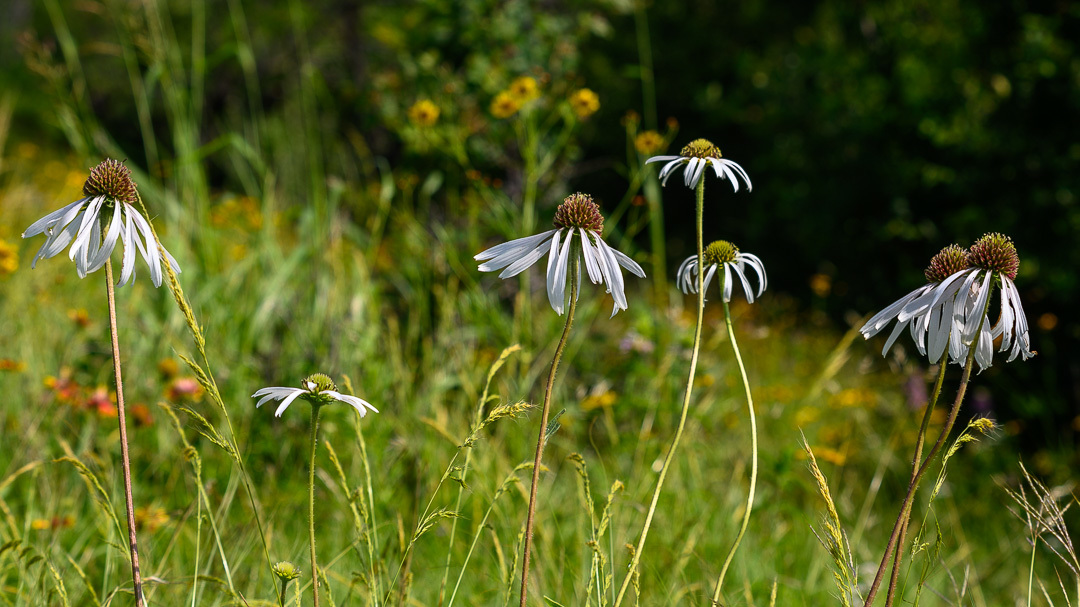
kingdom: Plantae
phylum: Tracheophyta
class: Magnoliopsida
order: Asterales
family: Asteraceae
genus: Echinacea
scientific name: Echinacea pallida
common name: Pale echinacea
